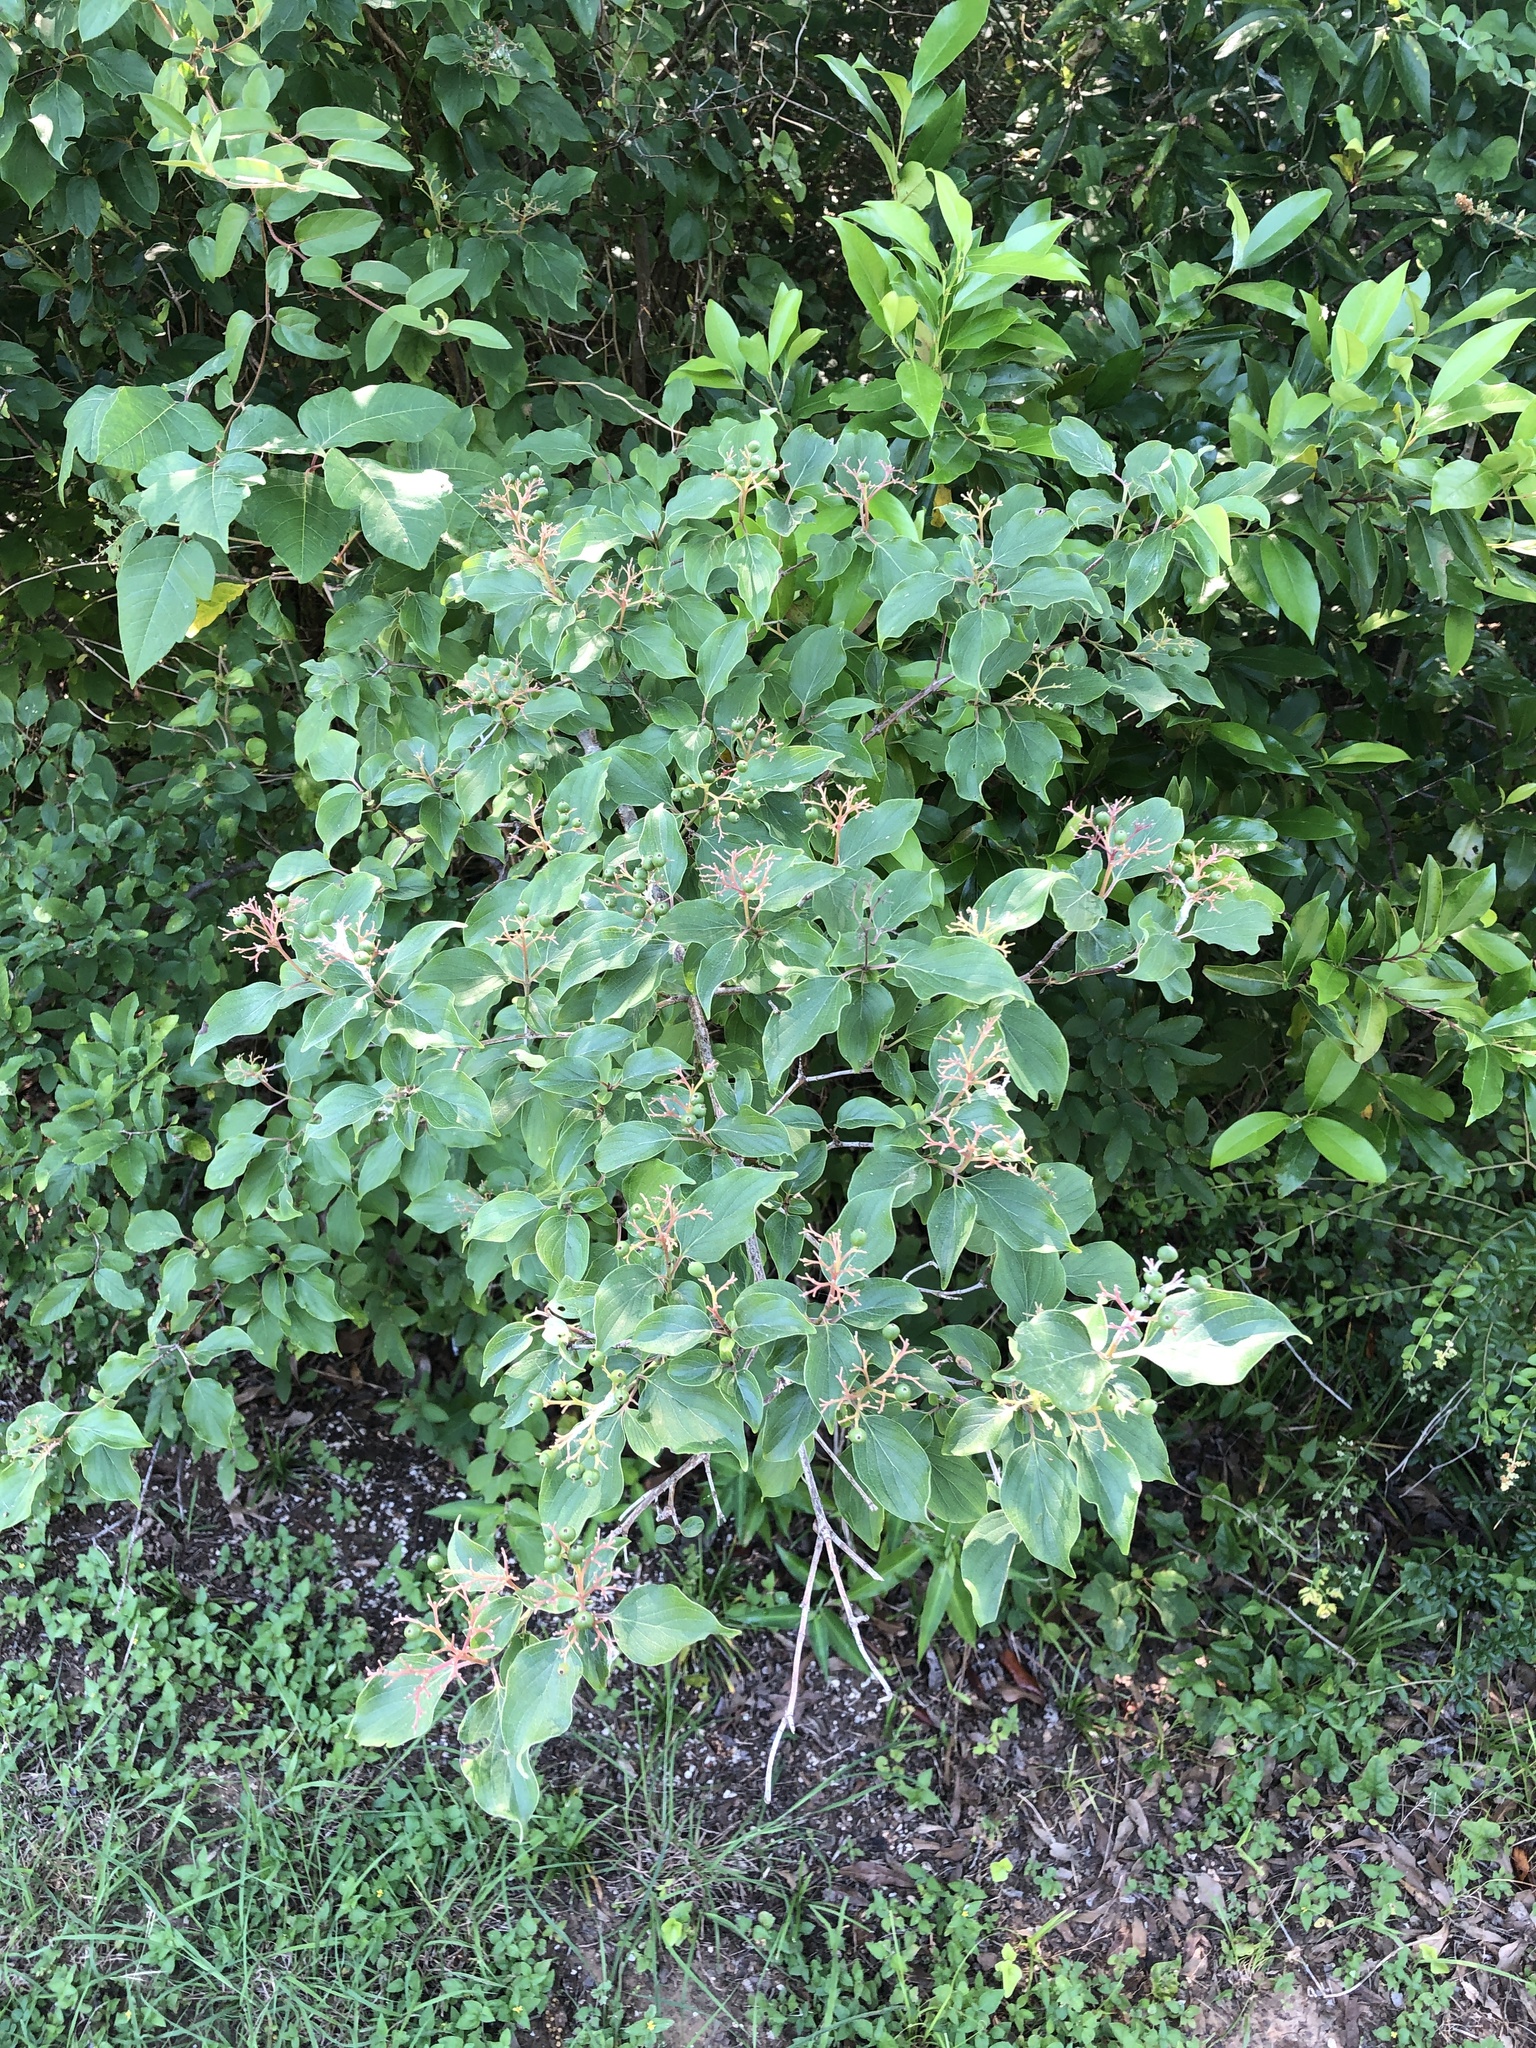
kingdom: Plantae
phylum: Tracheophyta
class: Magnoliopsida
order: Cornales
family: Cornaceae
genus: Cornus
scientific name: Cornus drummondii
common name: Rough-leaf dogwood
